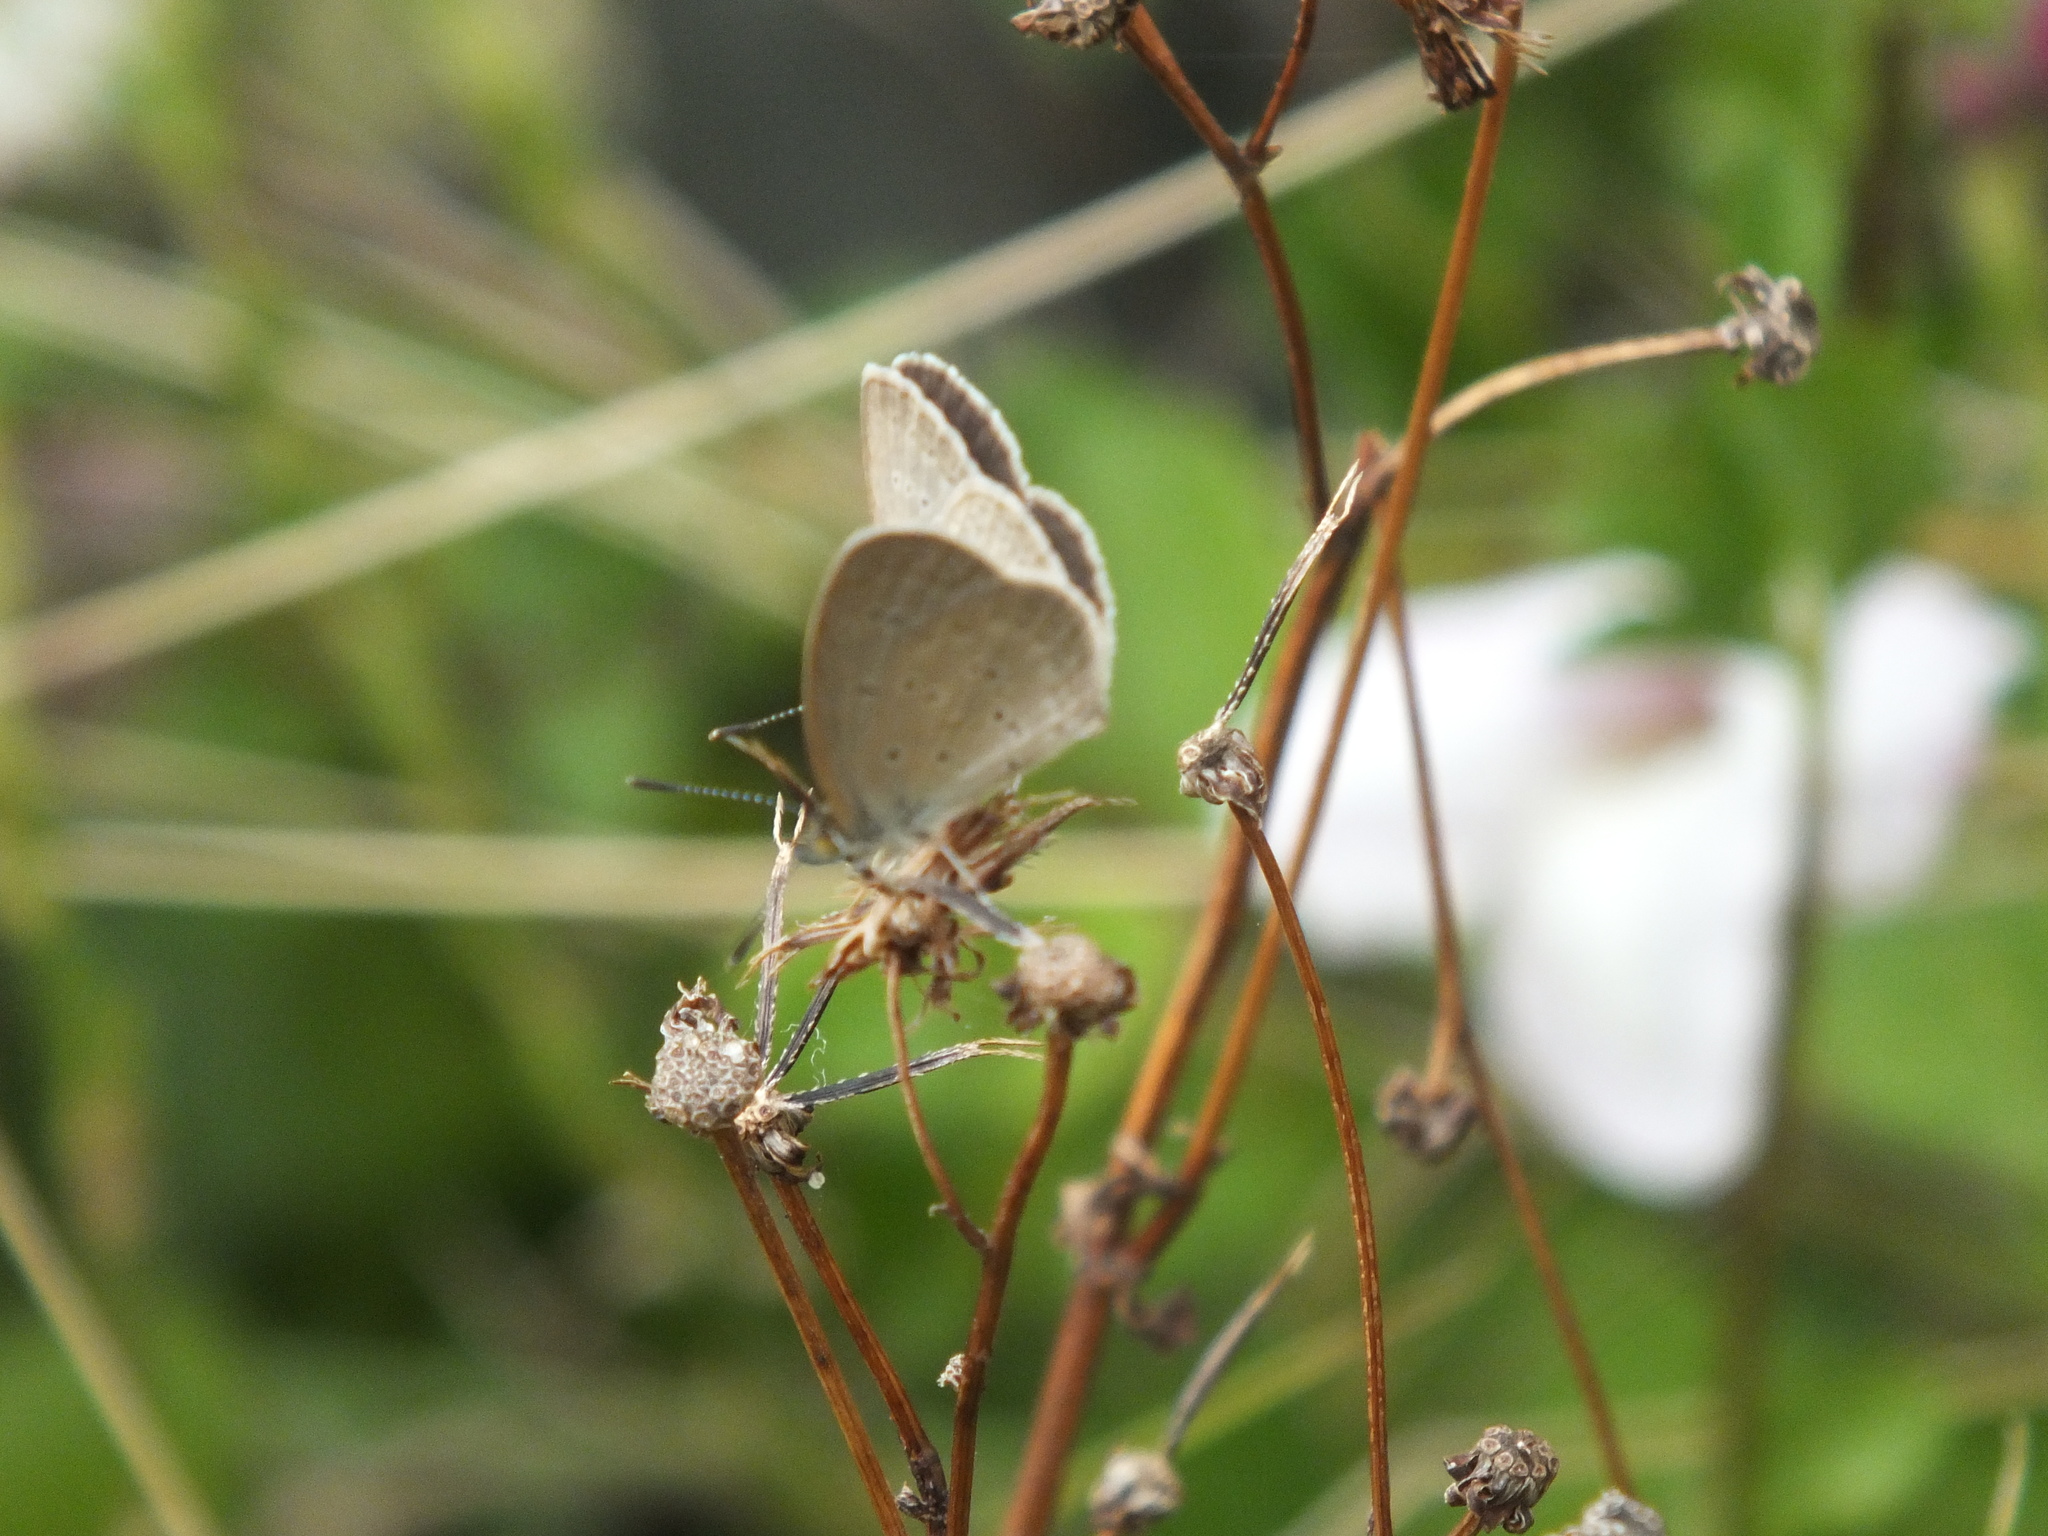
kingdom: Animalia
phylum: Arthropoda
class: Insecta
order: Lepidoptera
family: Lycaenidae
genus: Zizina
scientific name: Zizina otis
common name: Lesser grass blue
